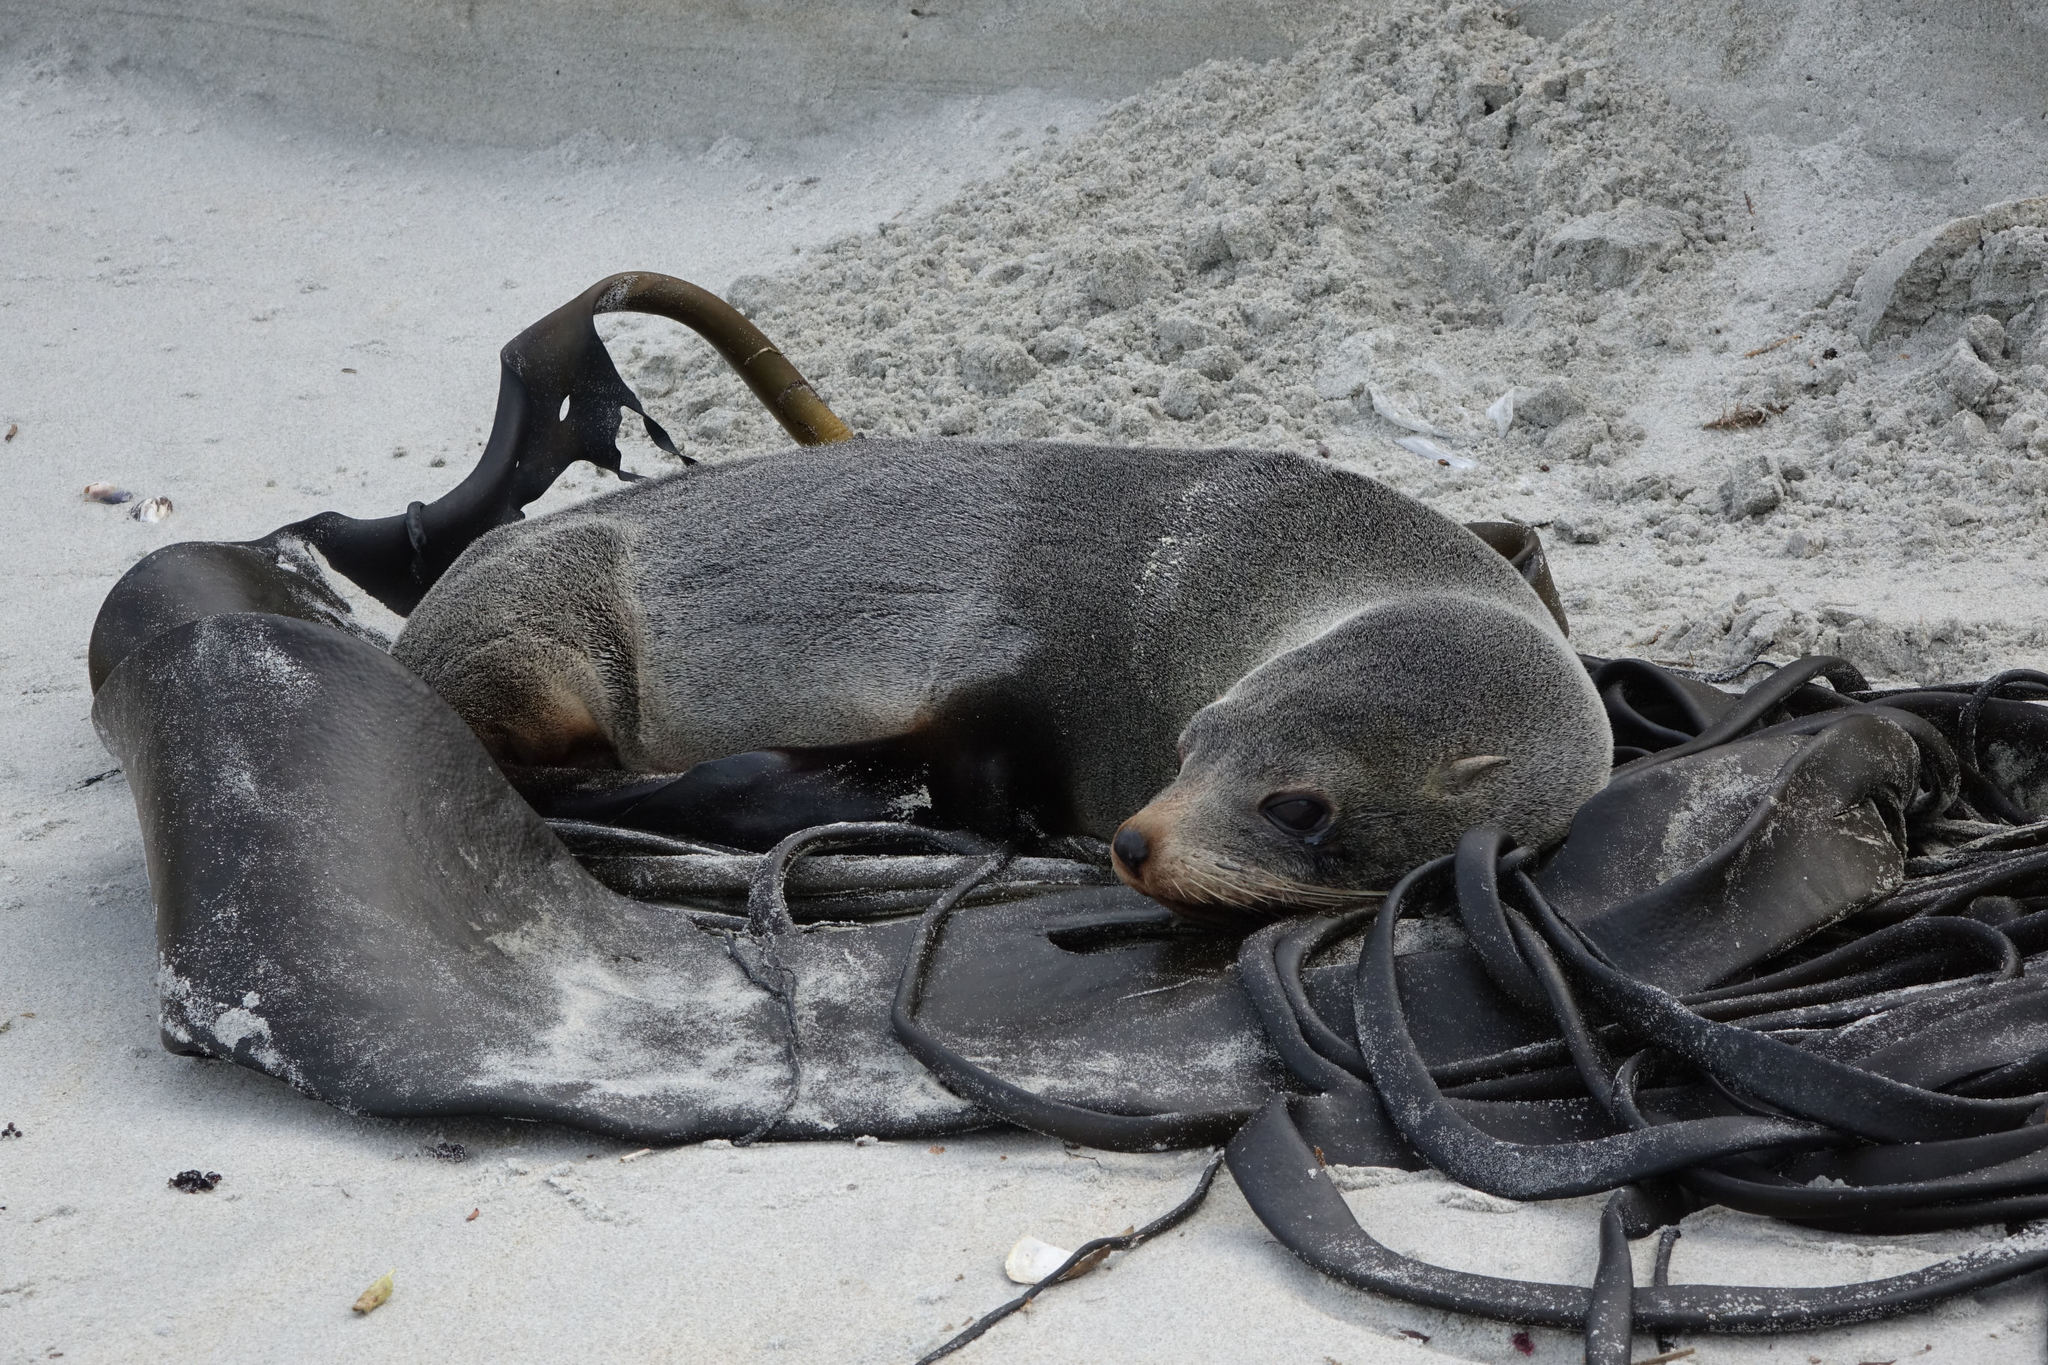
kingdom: Animalia
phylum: Chordata
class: Mammalia
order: Carnivora
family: Otariidae
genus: Arctocephalus
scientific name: Arctocephalus forsteri
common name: New zealand fur seal
